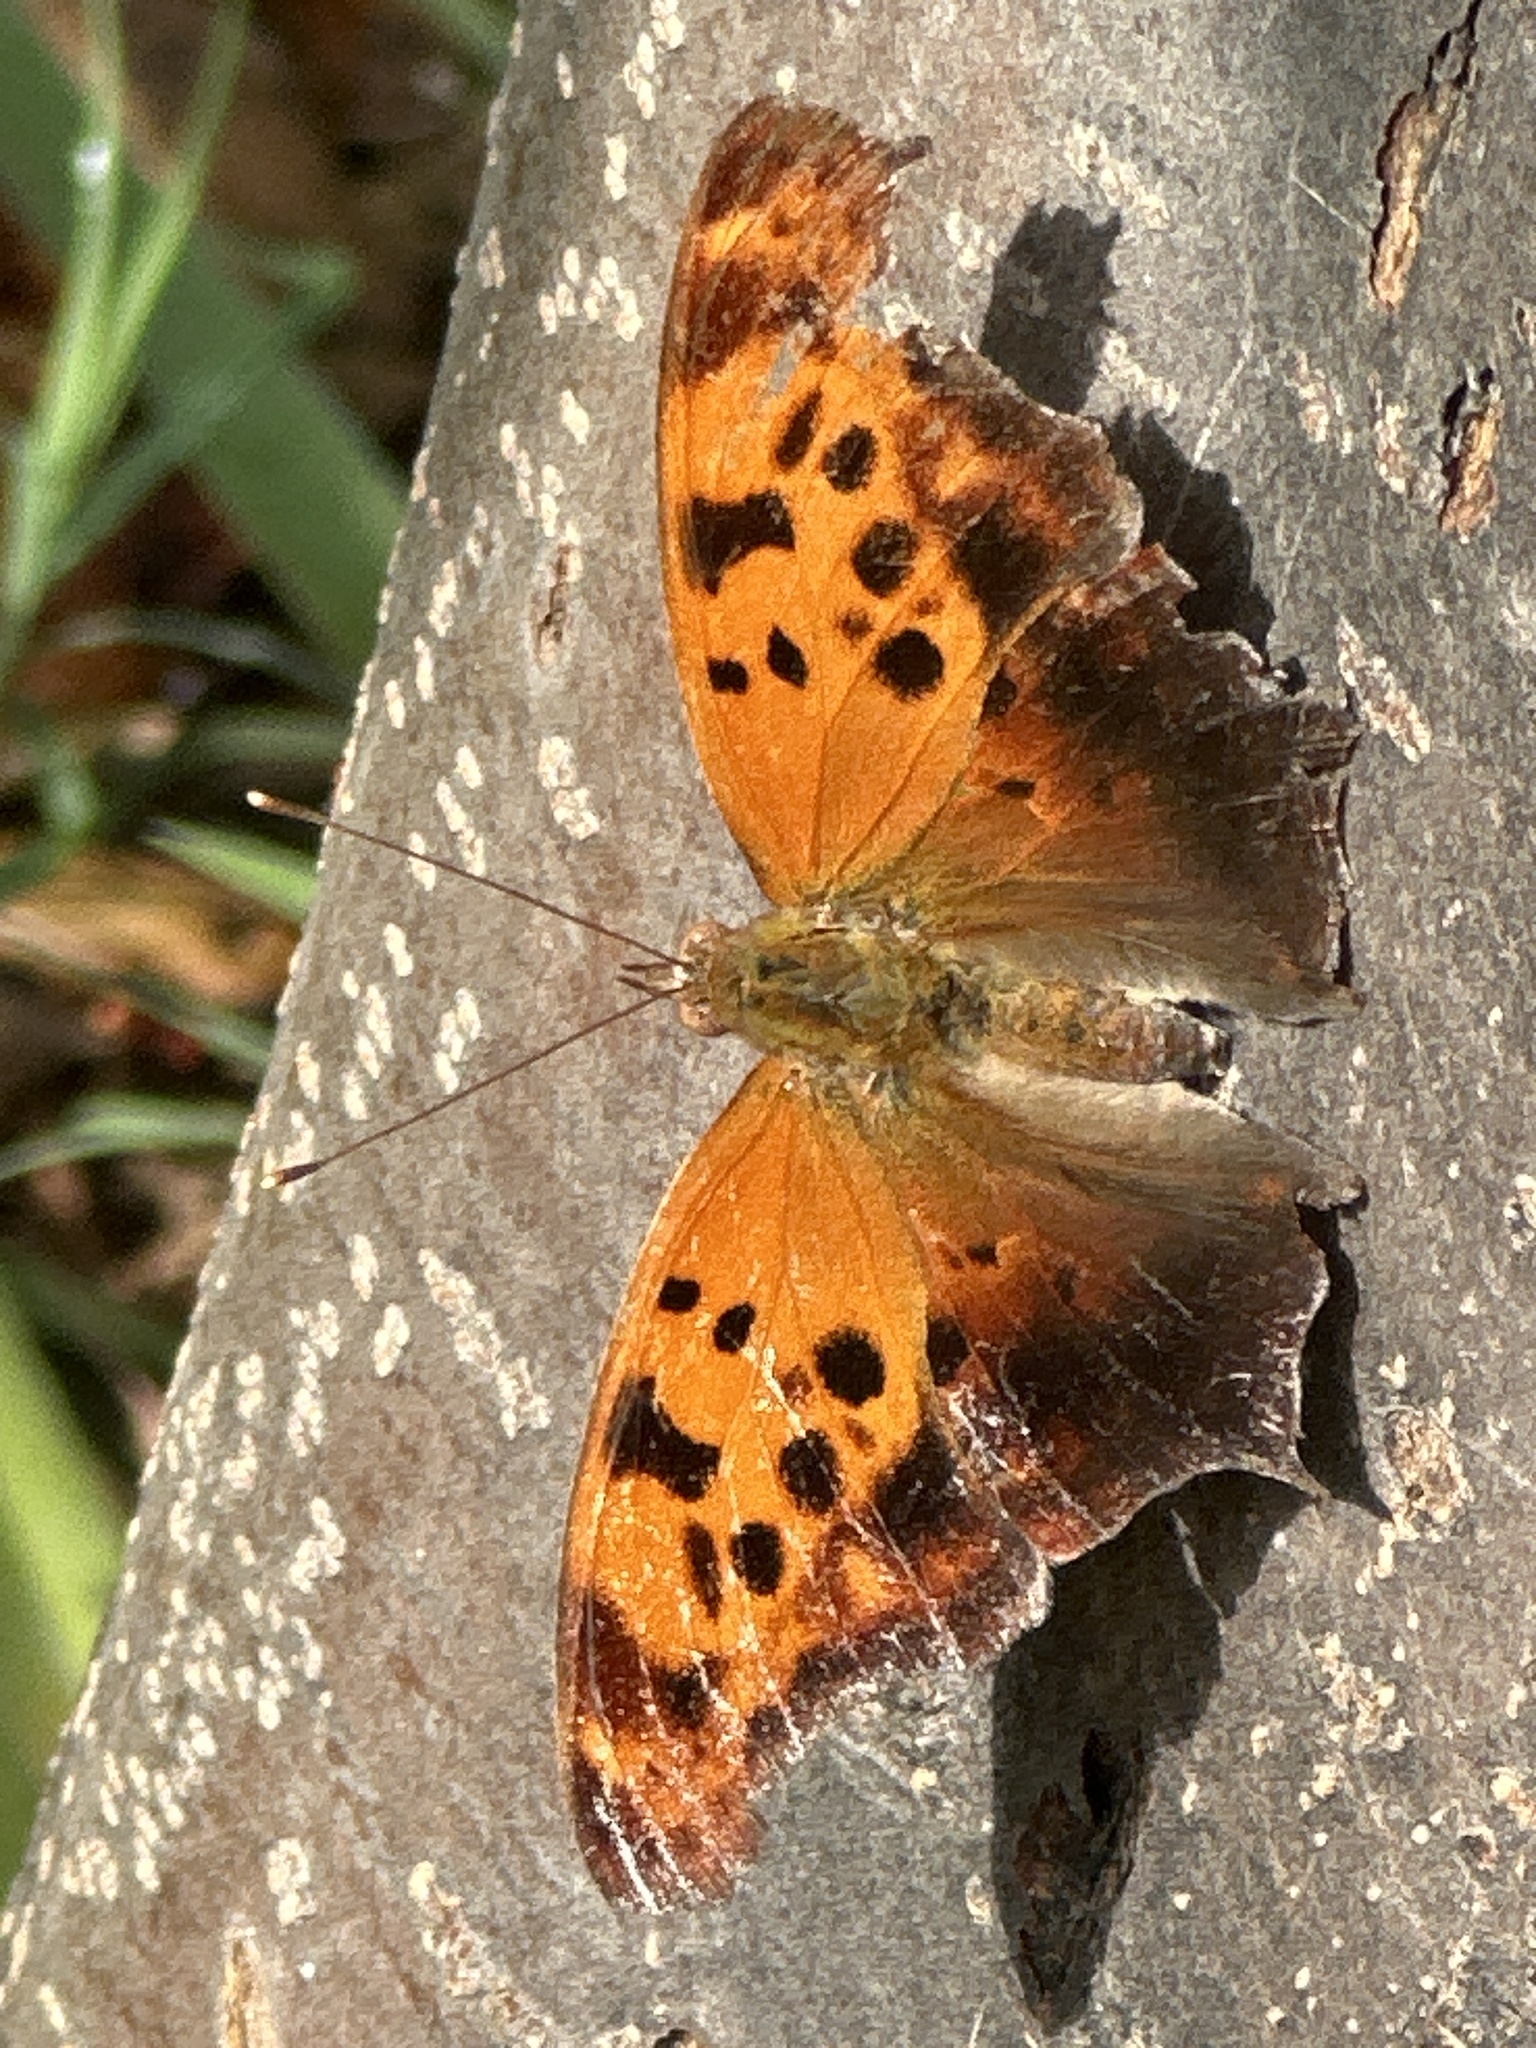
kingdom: Animalia
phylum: Arthropoda
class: Insecta
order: Lepidoptera
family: Nymphalidae
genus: Polygonia
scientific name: Polygonia interrogationis
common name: Question mark
